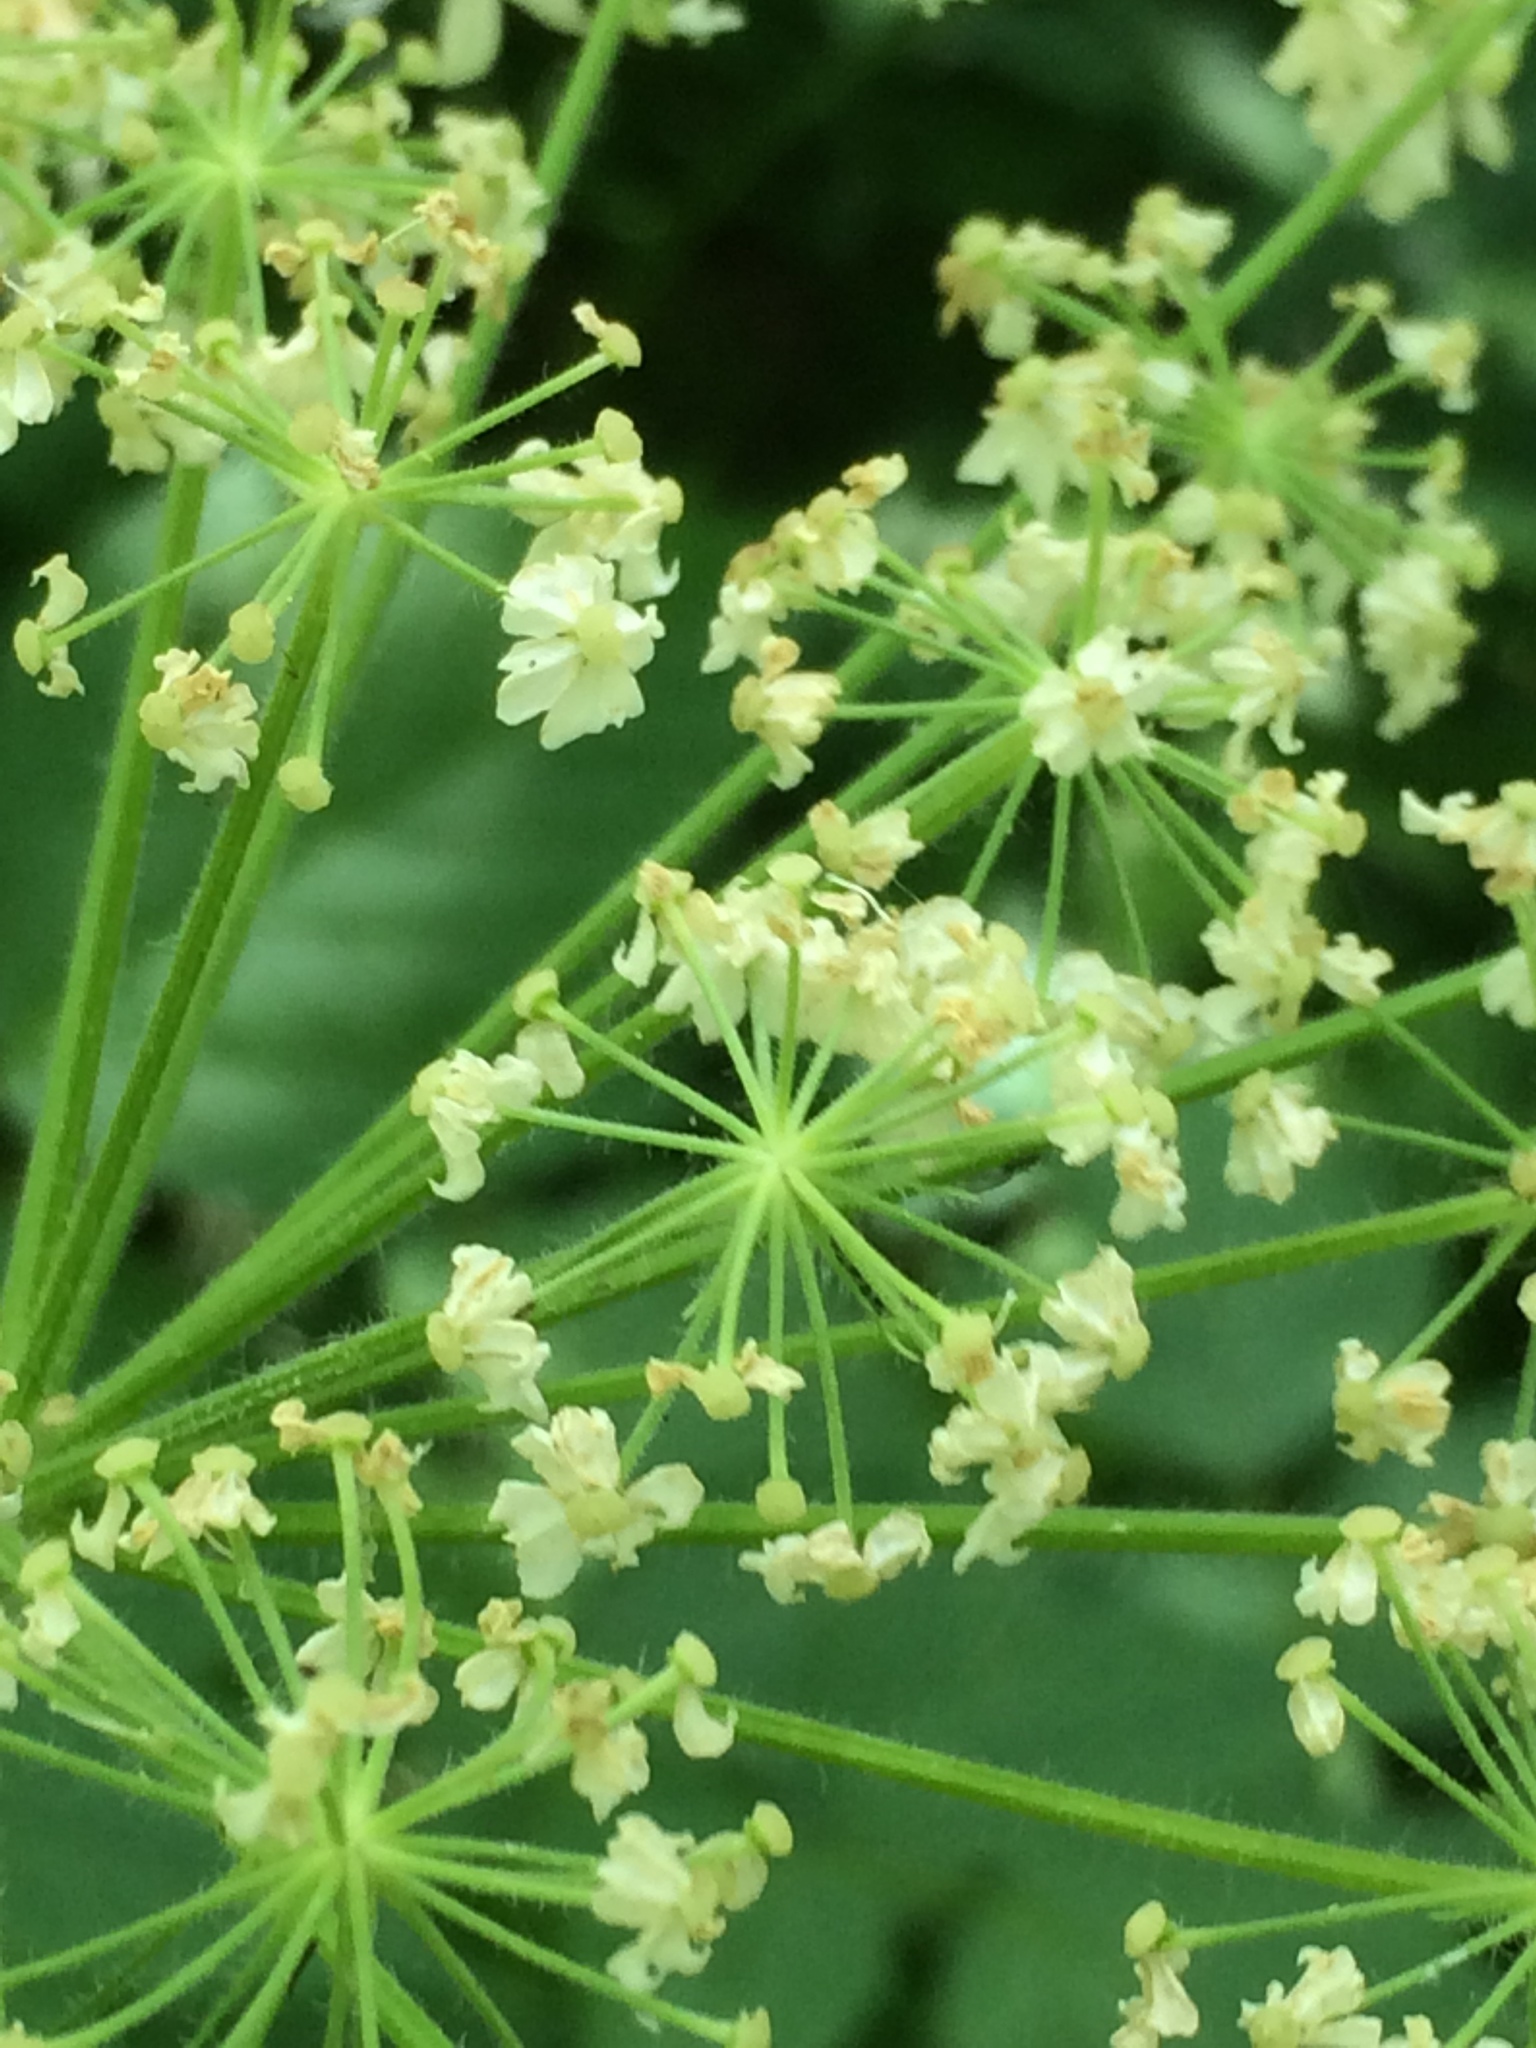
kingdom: Plantae
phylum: Tracheophyta
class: Magnoliopsida
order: Apiales
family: Apiaceae
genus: Heracleum
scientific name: Heracleum maximum
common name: American cow parsnip
